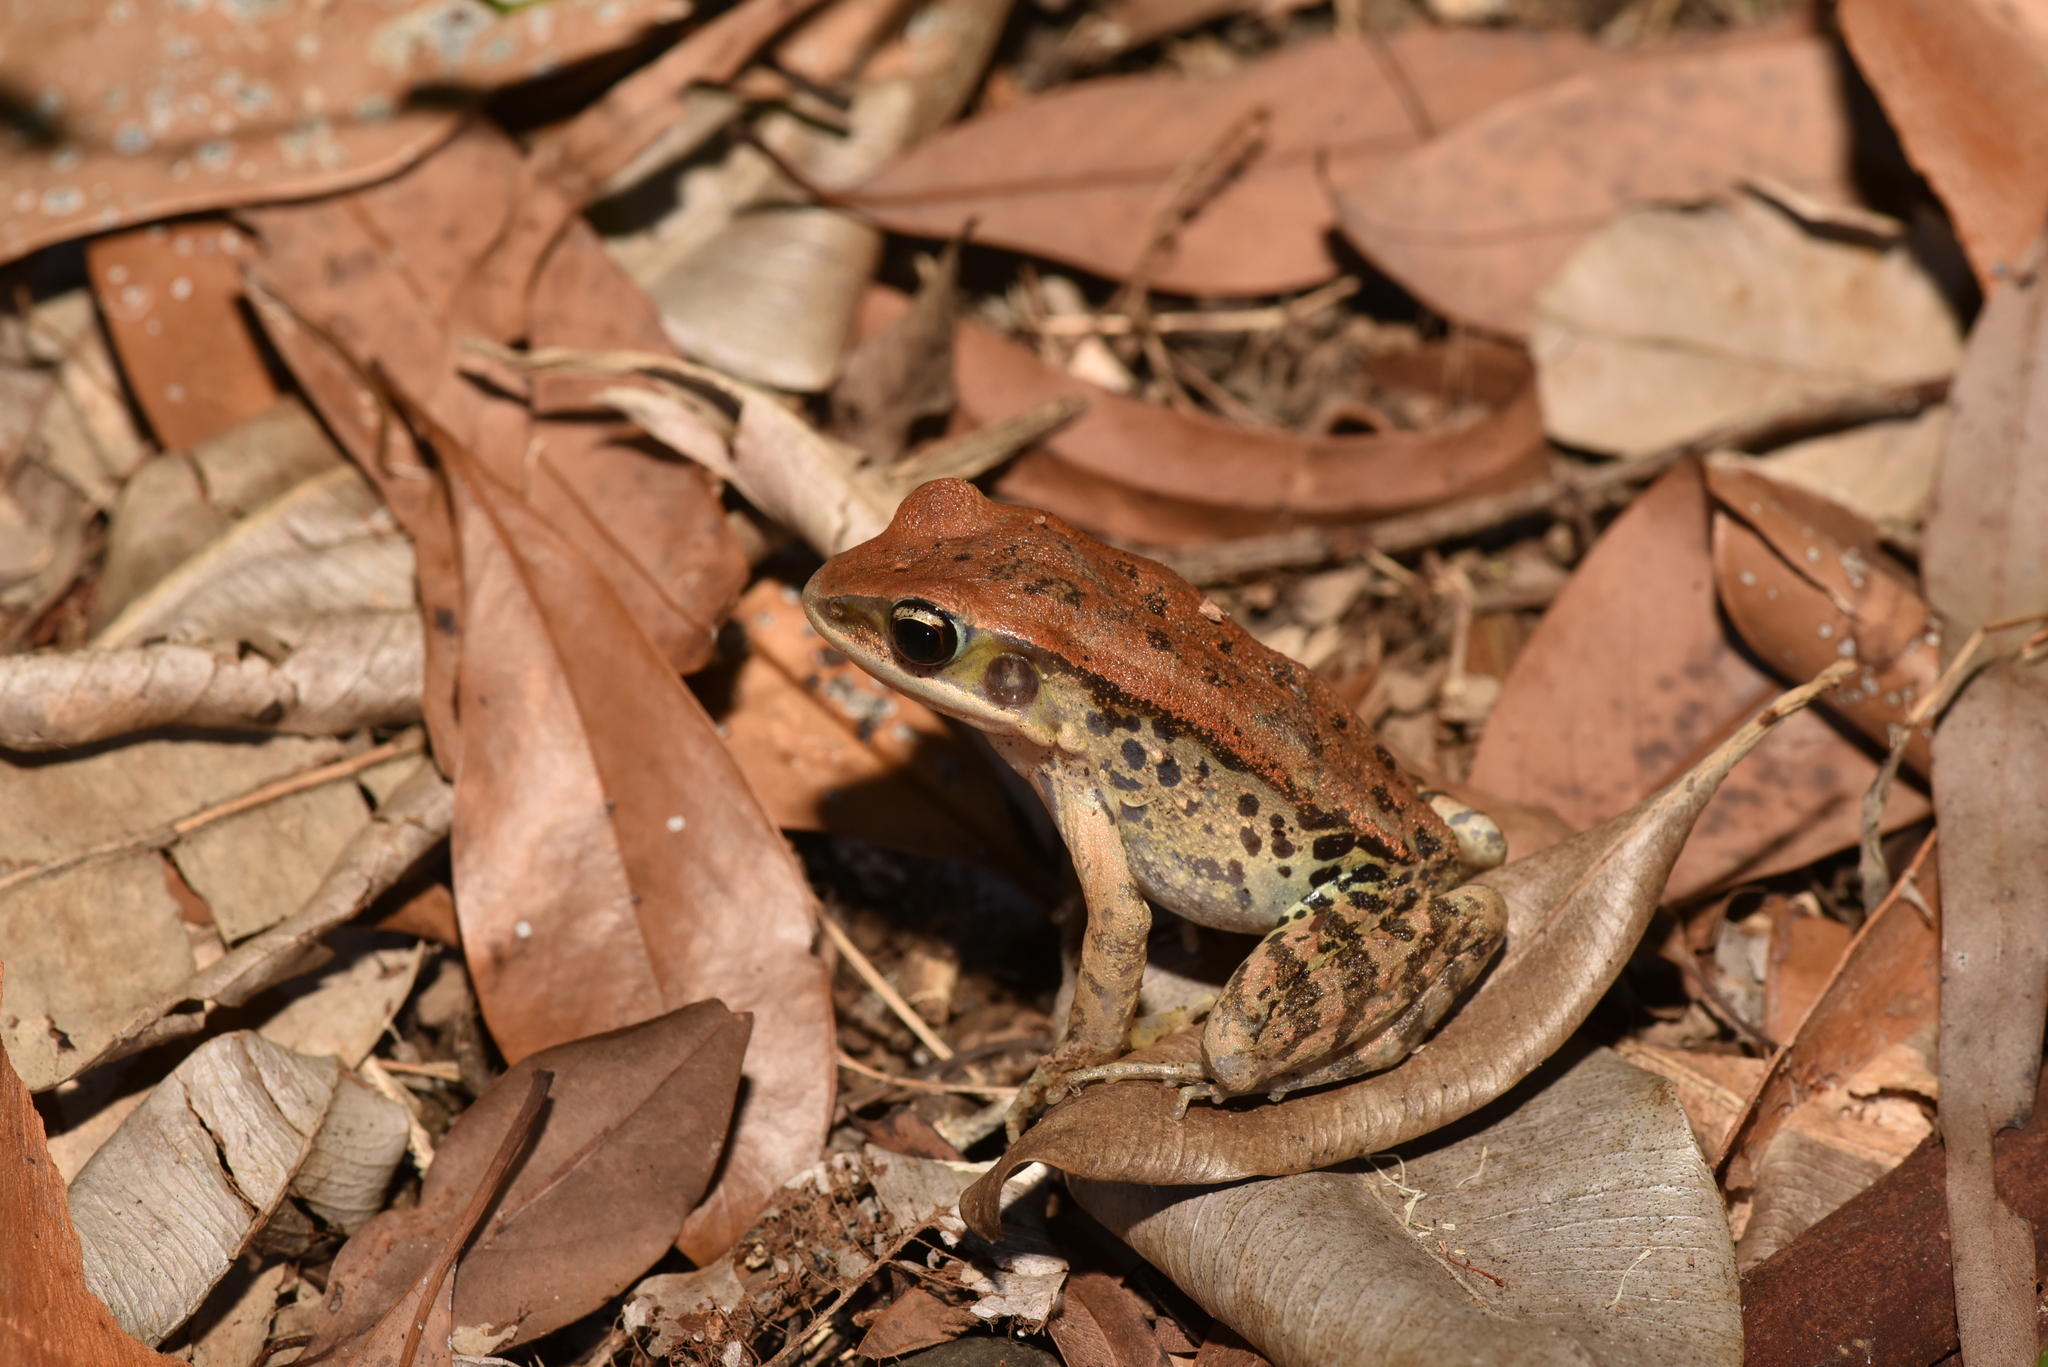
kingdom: Animalia
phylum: Chordata
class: Amphibia
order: Anura
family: Ranidae
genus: Hylarana
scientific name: Hylarana latouchii
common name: Broad-folded frog
